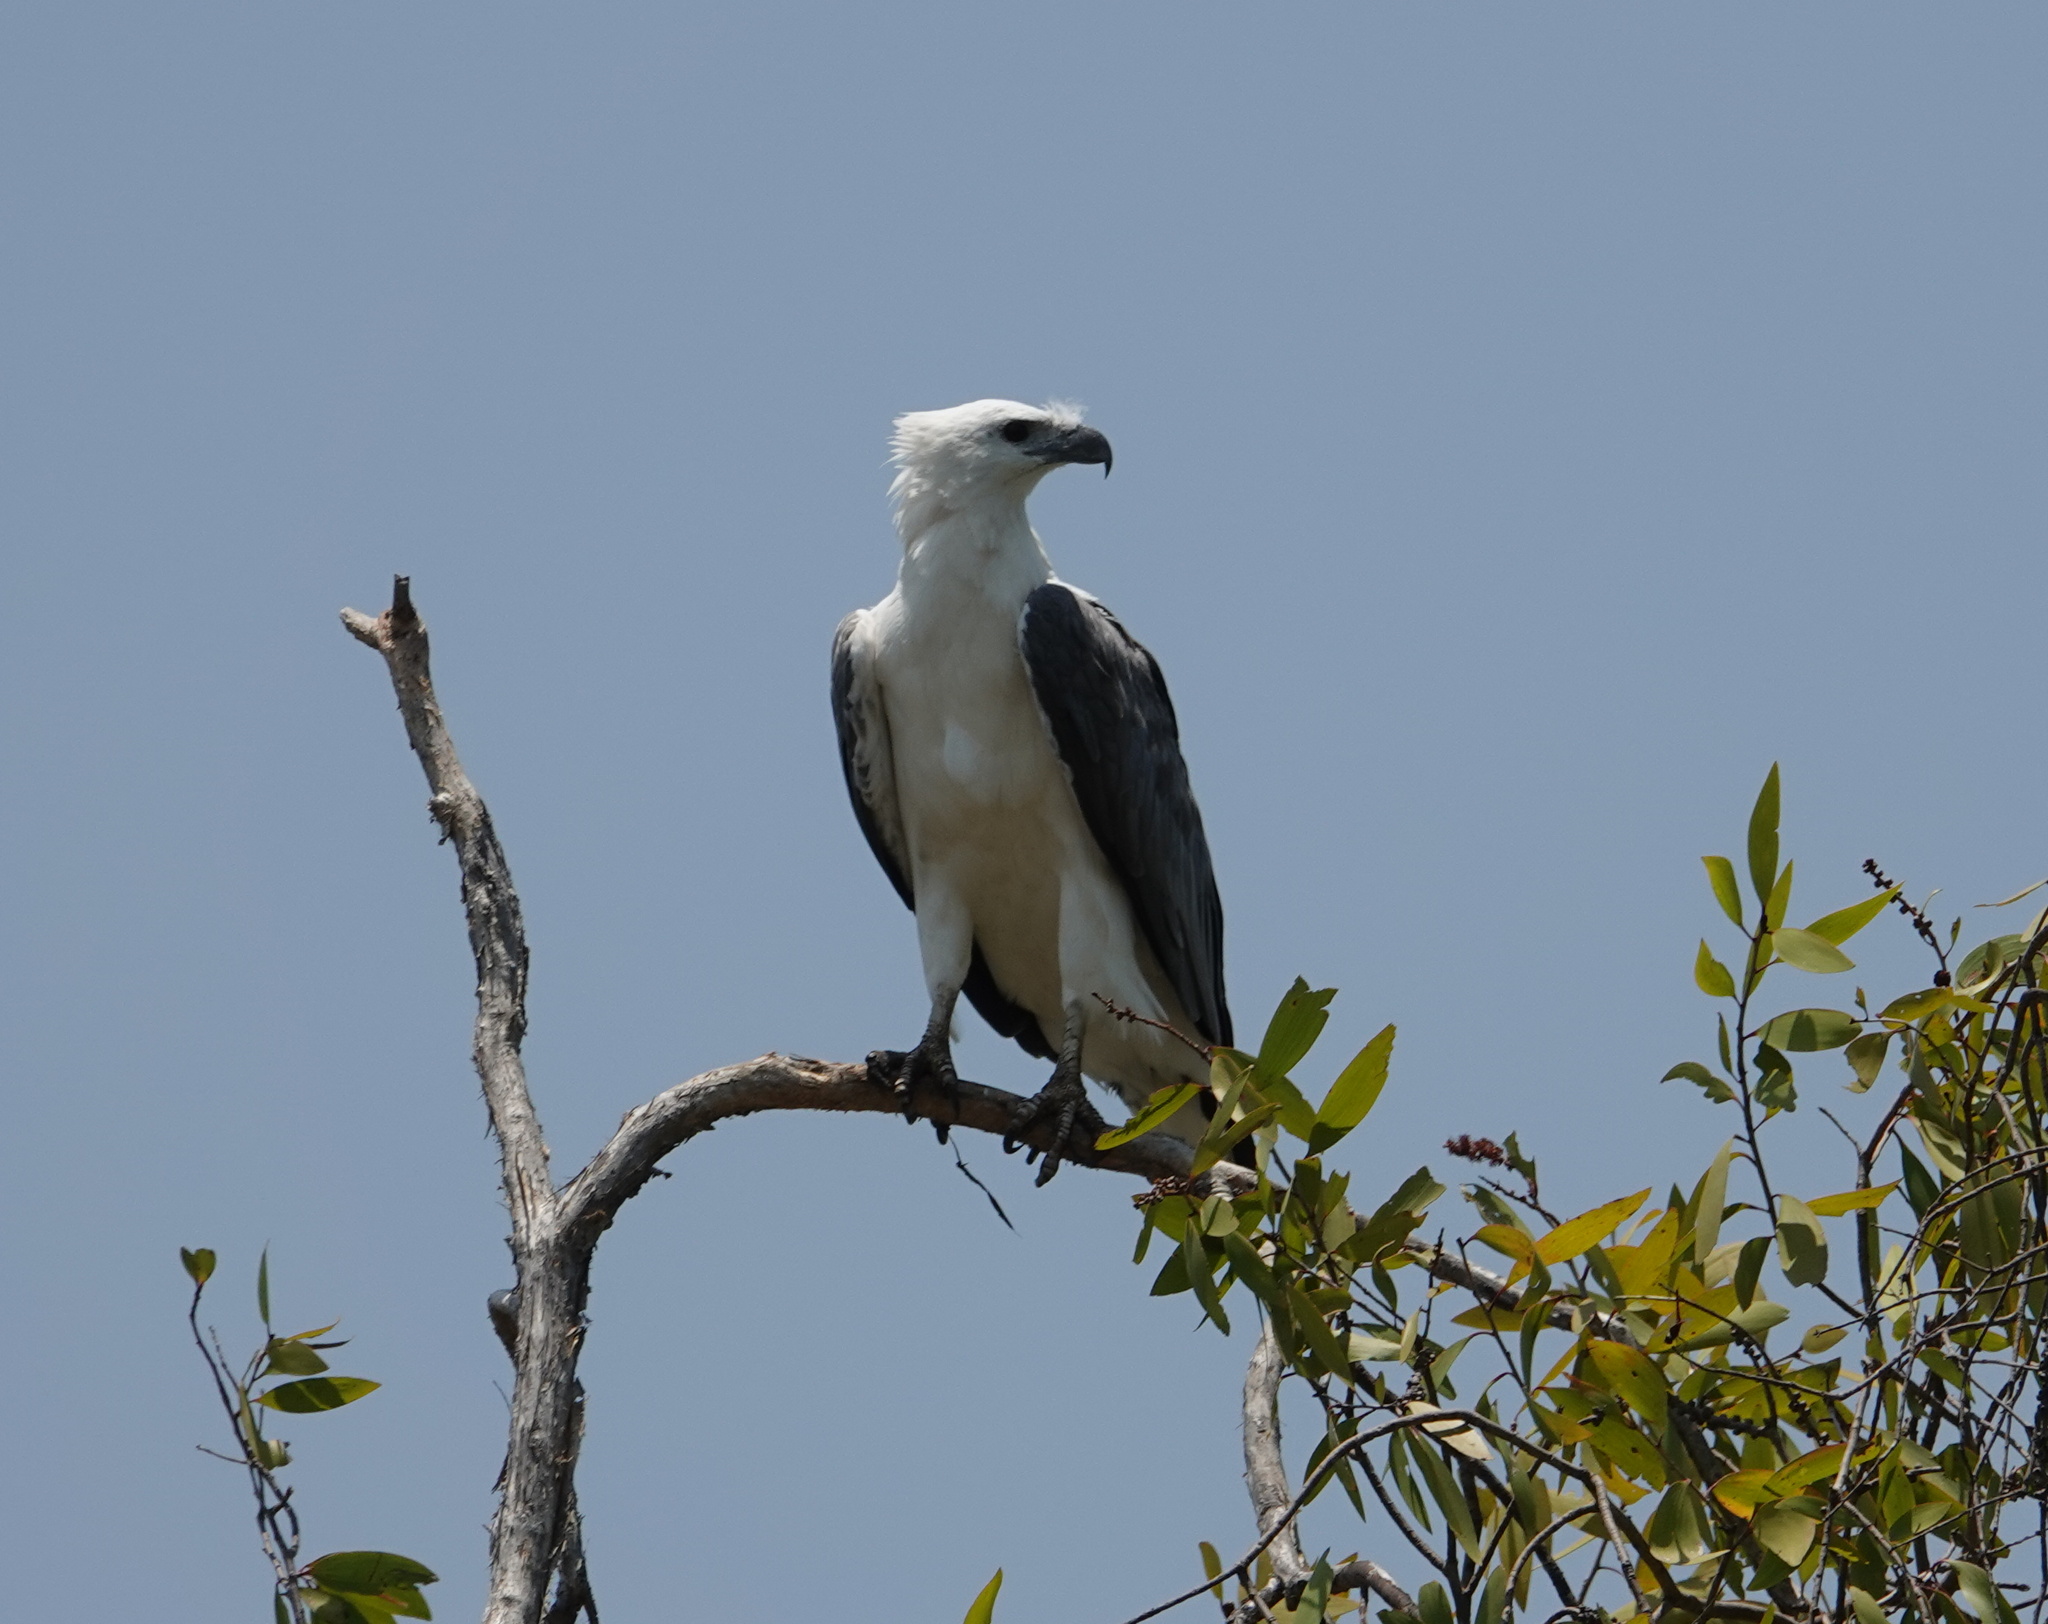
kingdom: Animalia
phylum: Chordata
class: Aves
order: Accipitriformes
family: Accipitridae
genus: Haliaeetus
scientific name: Haliaeetus leucogaster
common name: White-bellied sea eagle
